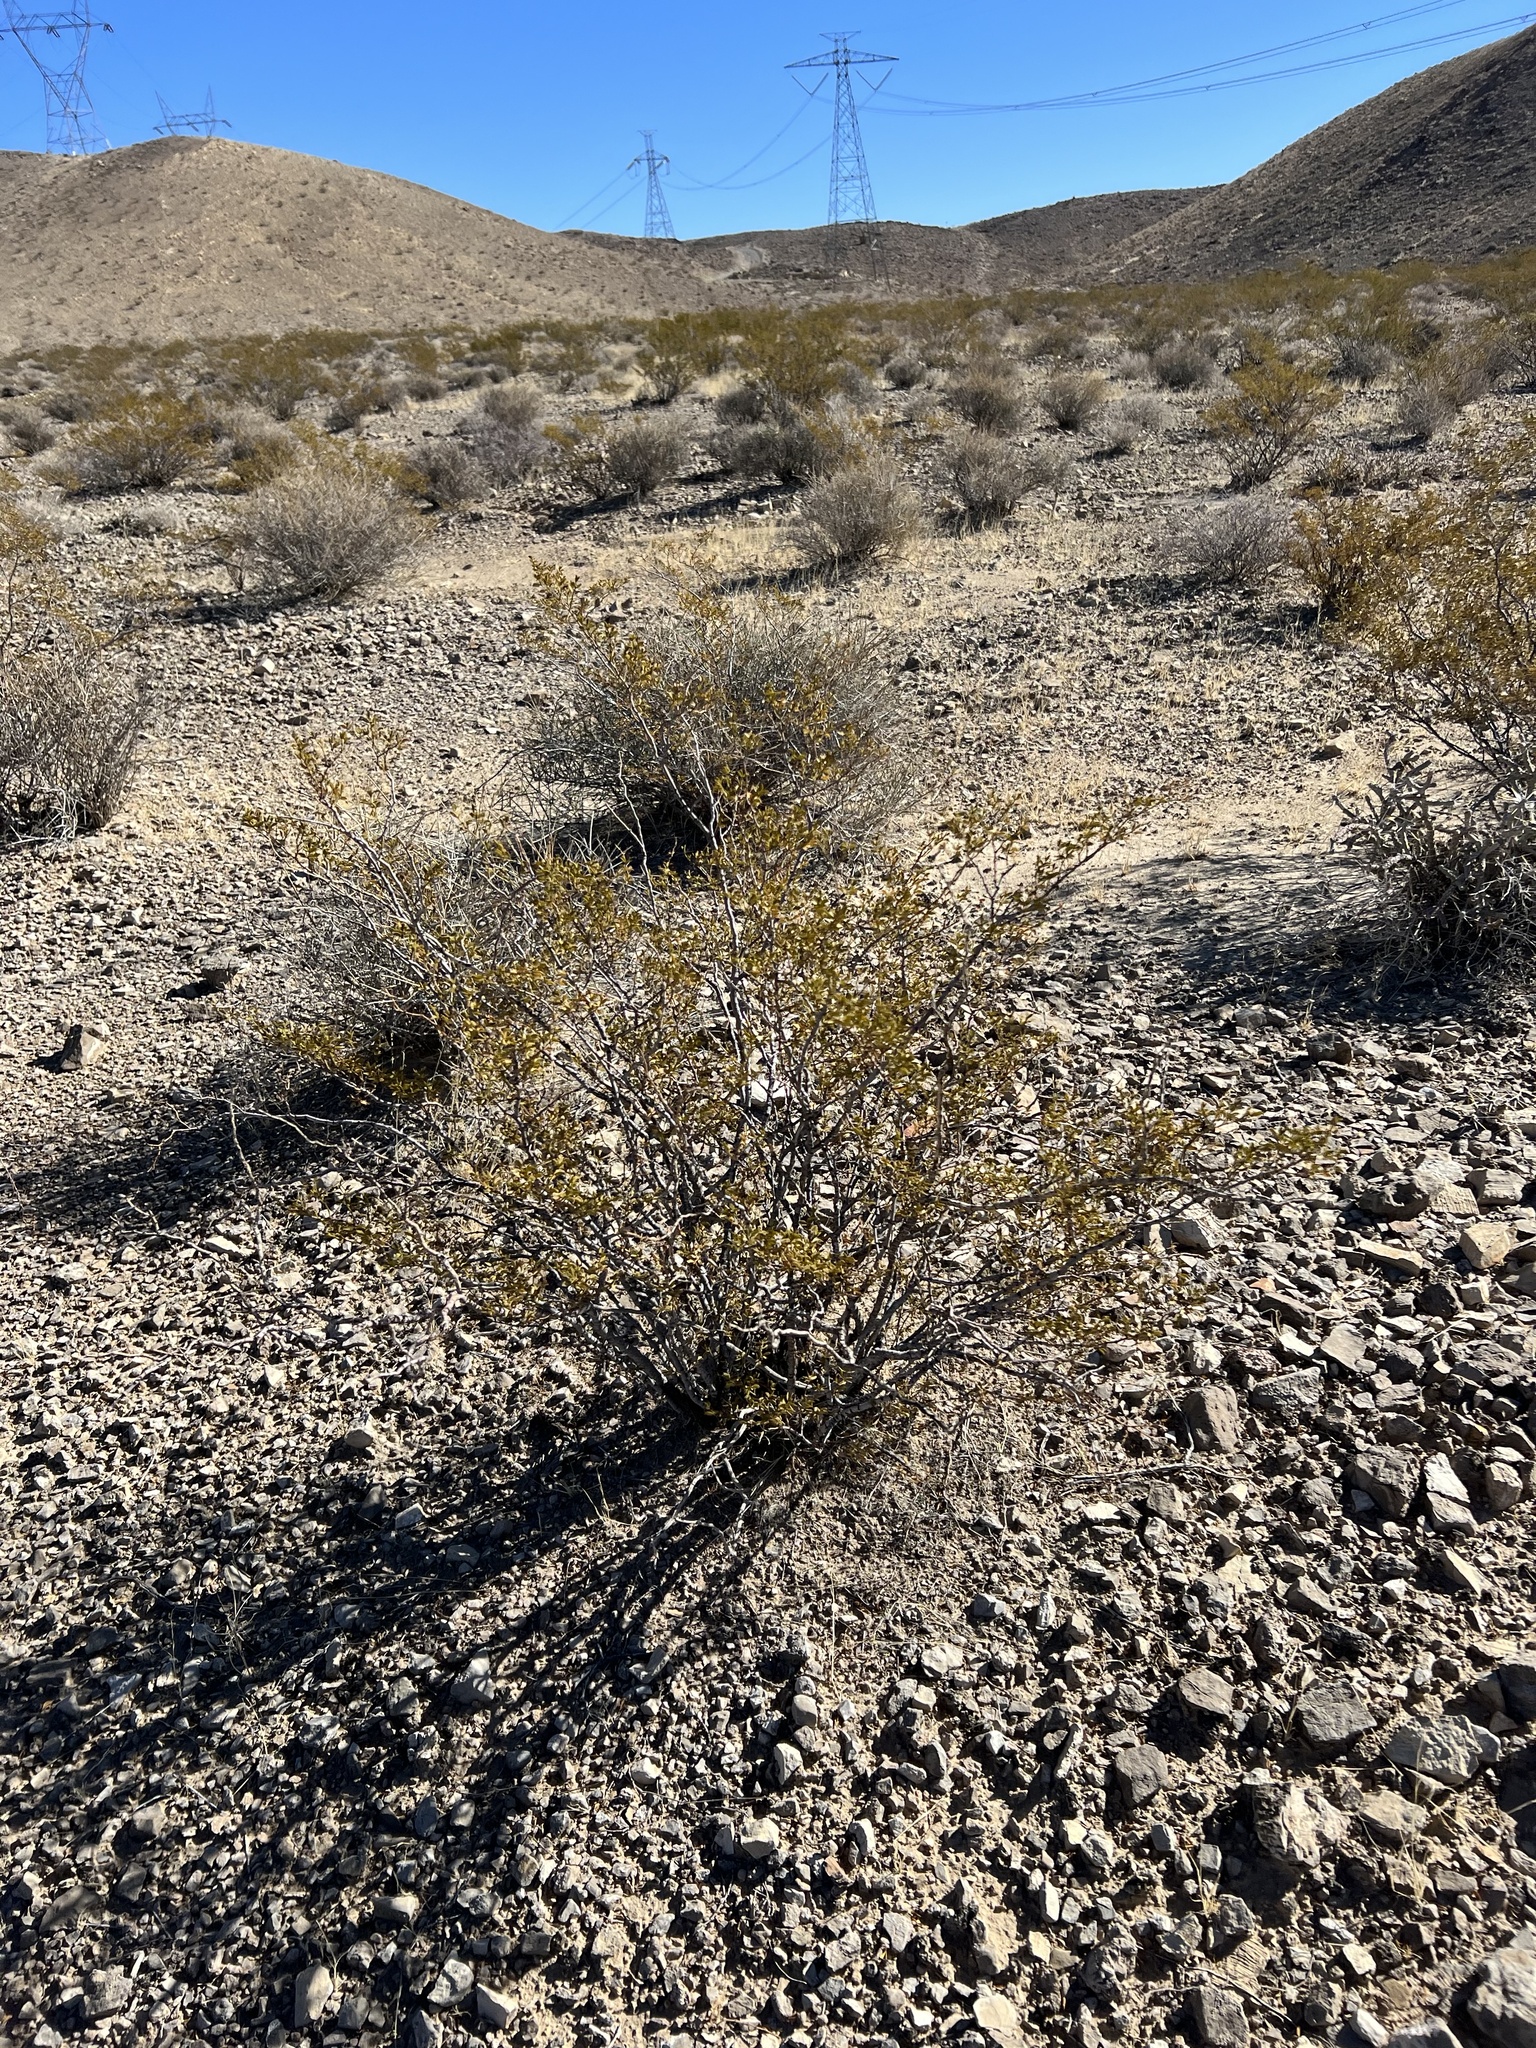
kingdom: Plantae
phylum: Tracheophyta
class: Magnoliopsida
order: Zygophyllales
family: Zygophyllaceae
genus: Larrea
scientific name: Larrea tridentata
